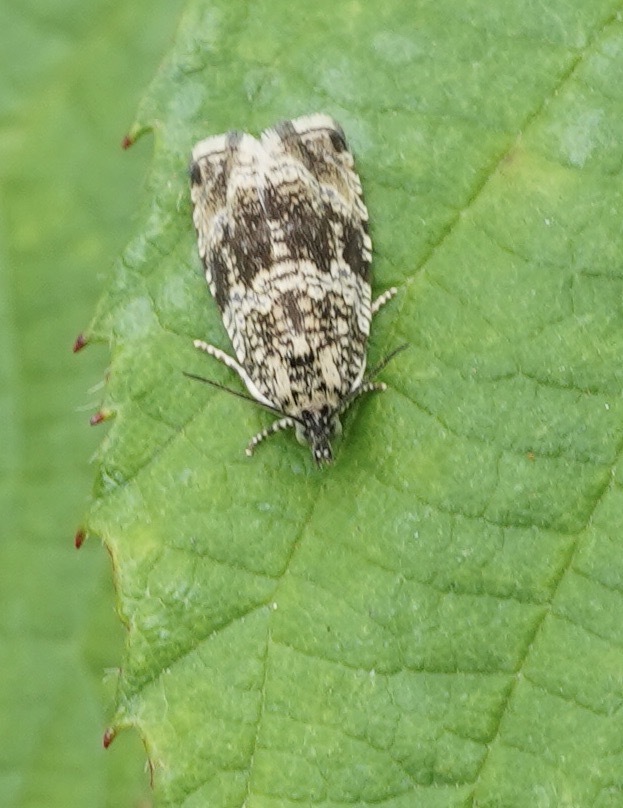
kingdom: Animalia
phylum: Arthropoda
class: Insecta
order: Lepidoptera
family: Tortricidae
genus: Syricoris
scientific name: Syricoris lacunana
